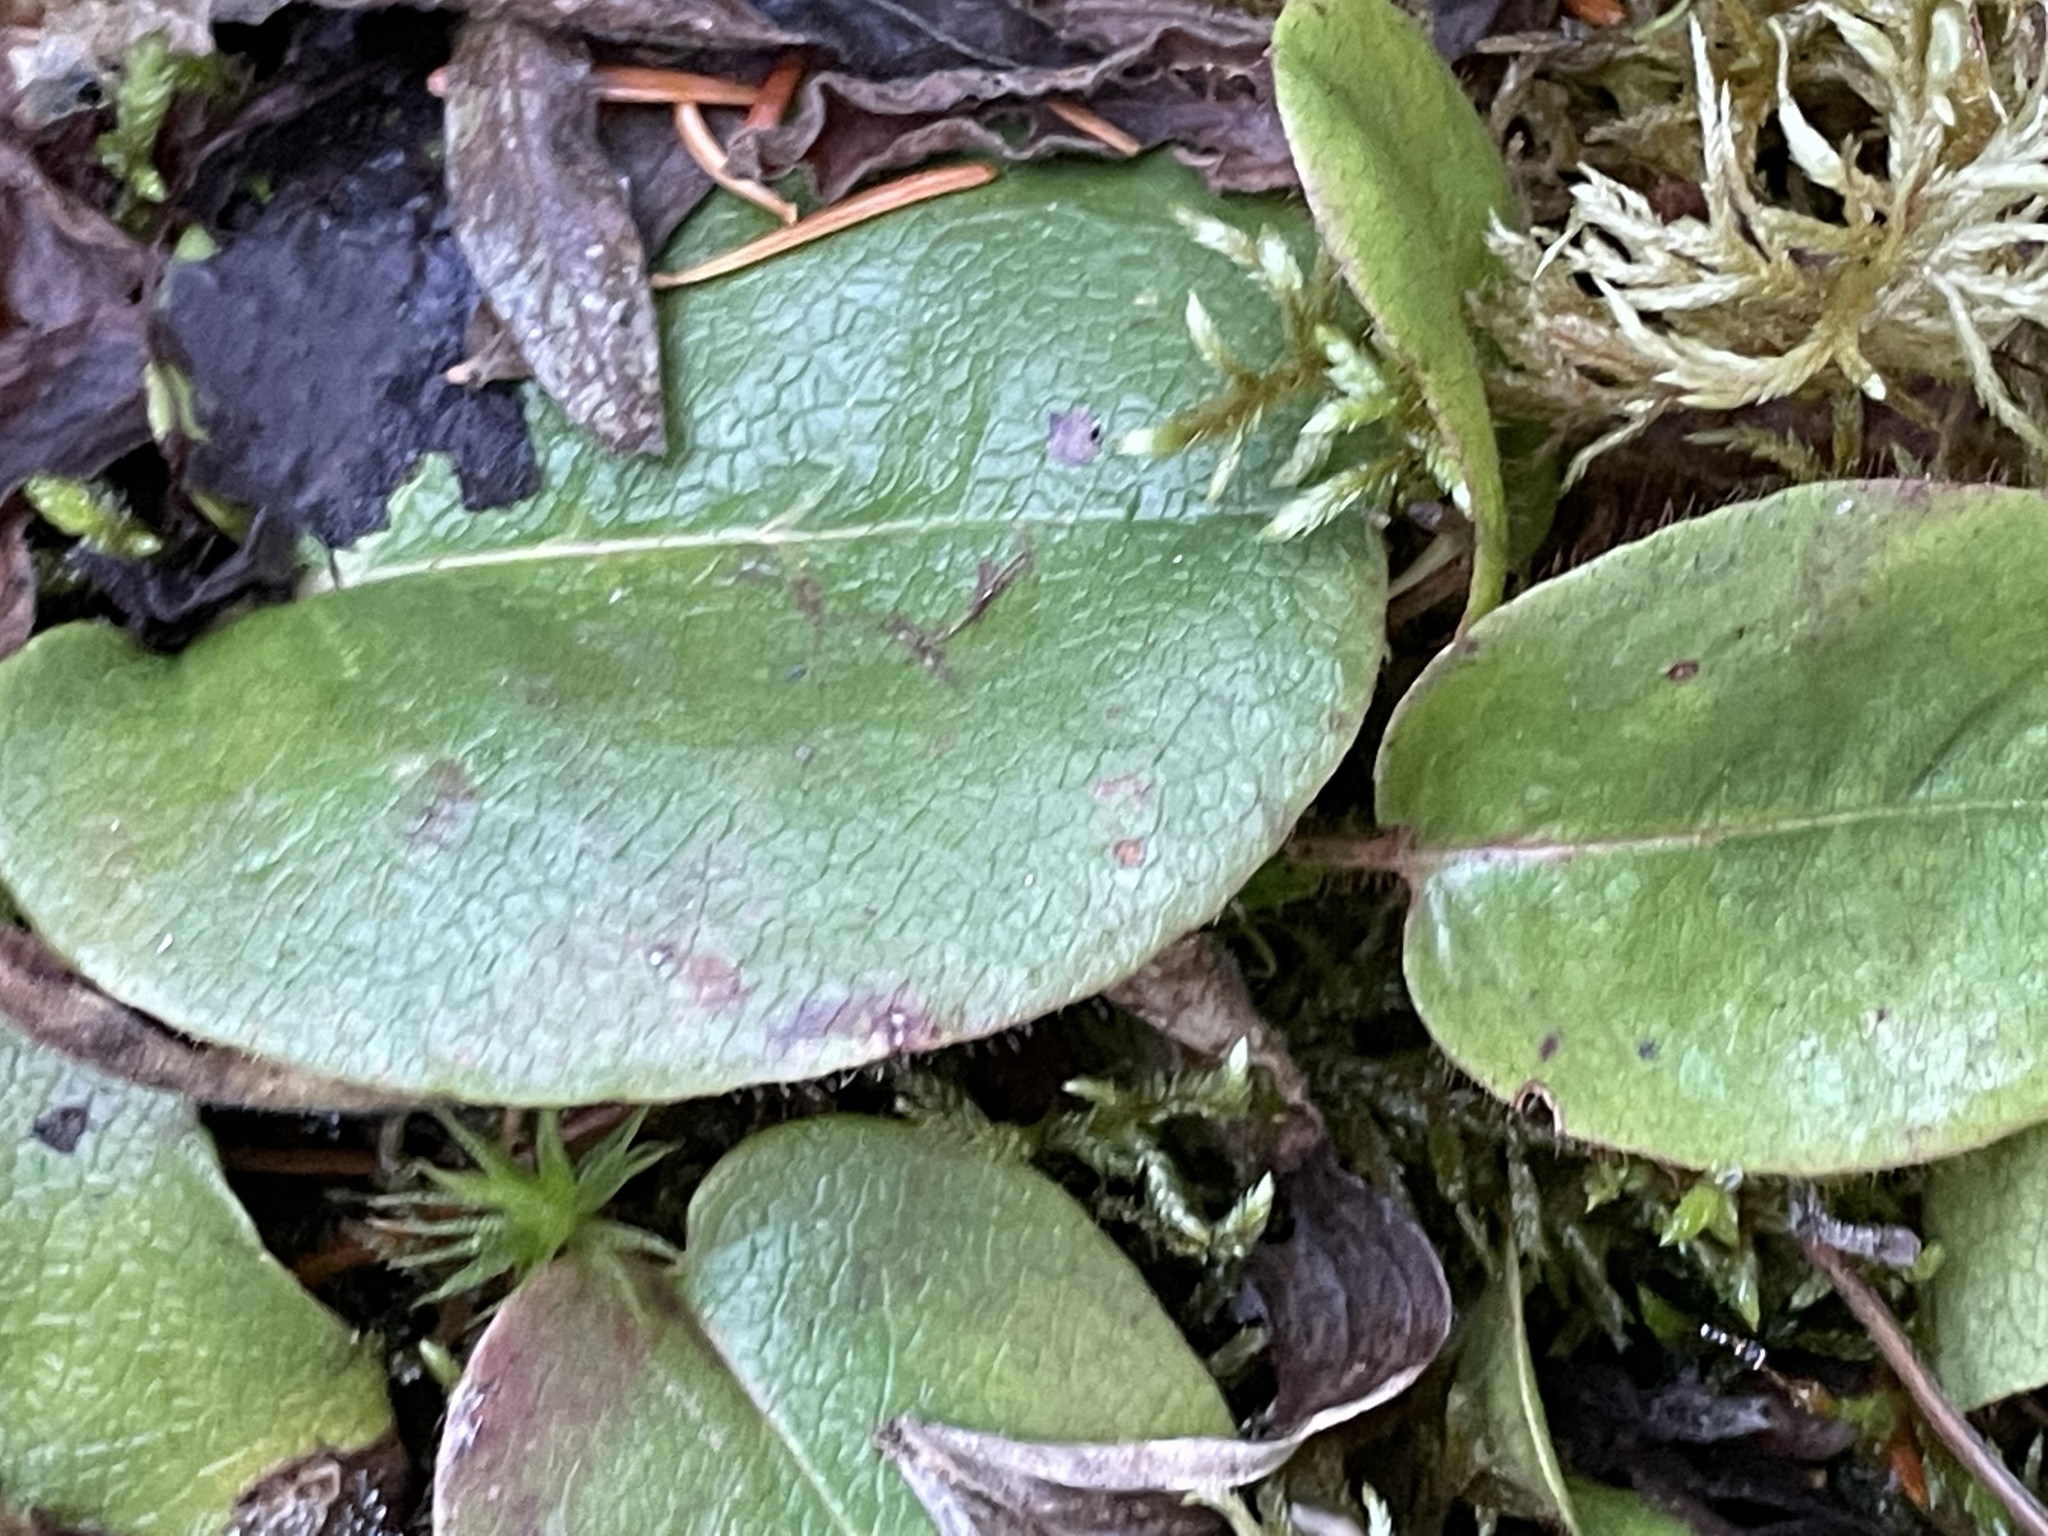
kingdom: Plantae
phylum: Tracheophyta
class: Magnoliopsida
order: Ericales
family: Ericaceae
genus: Epigaea
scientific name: Epigaea repens
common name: Gravelroot
